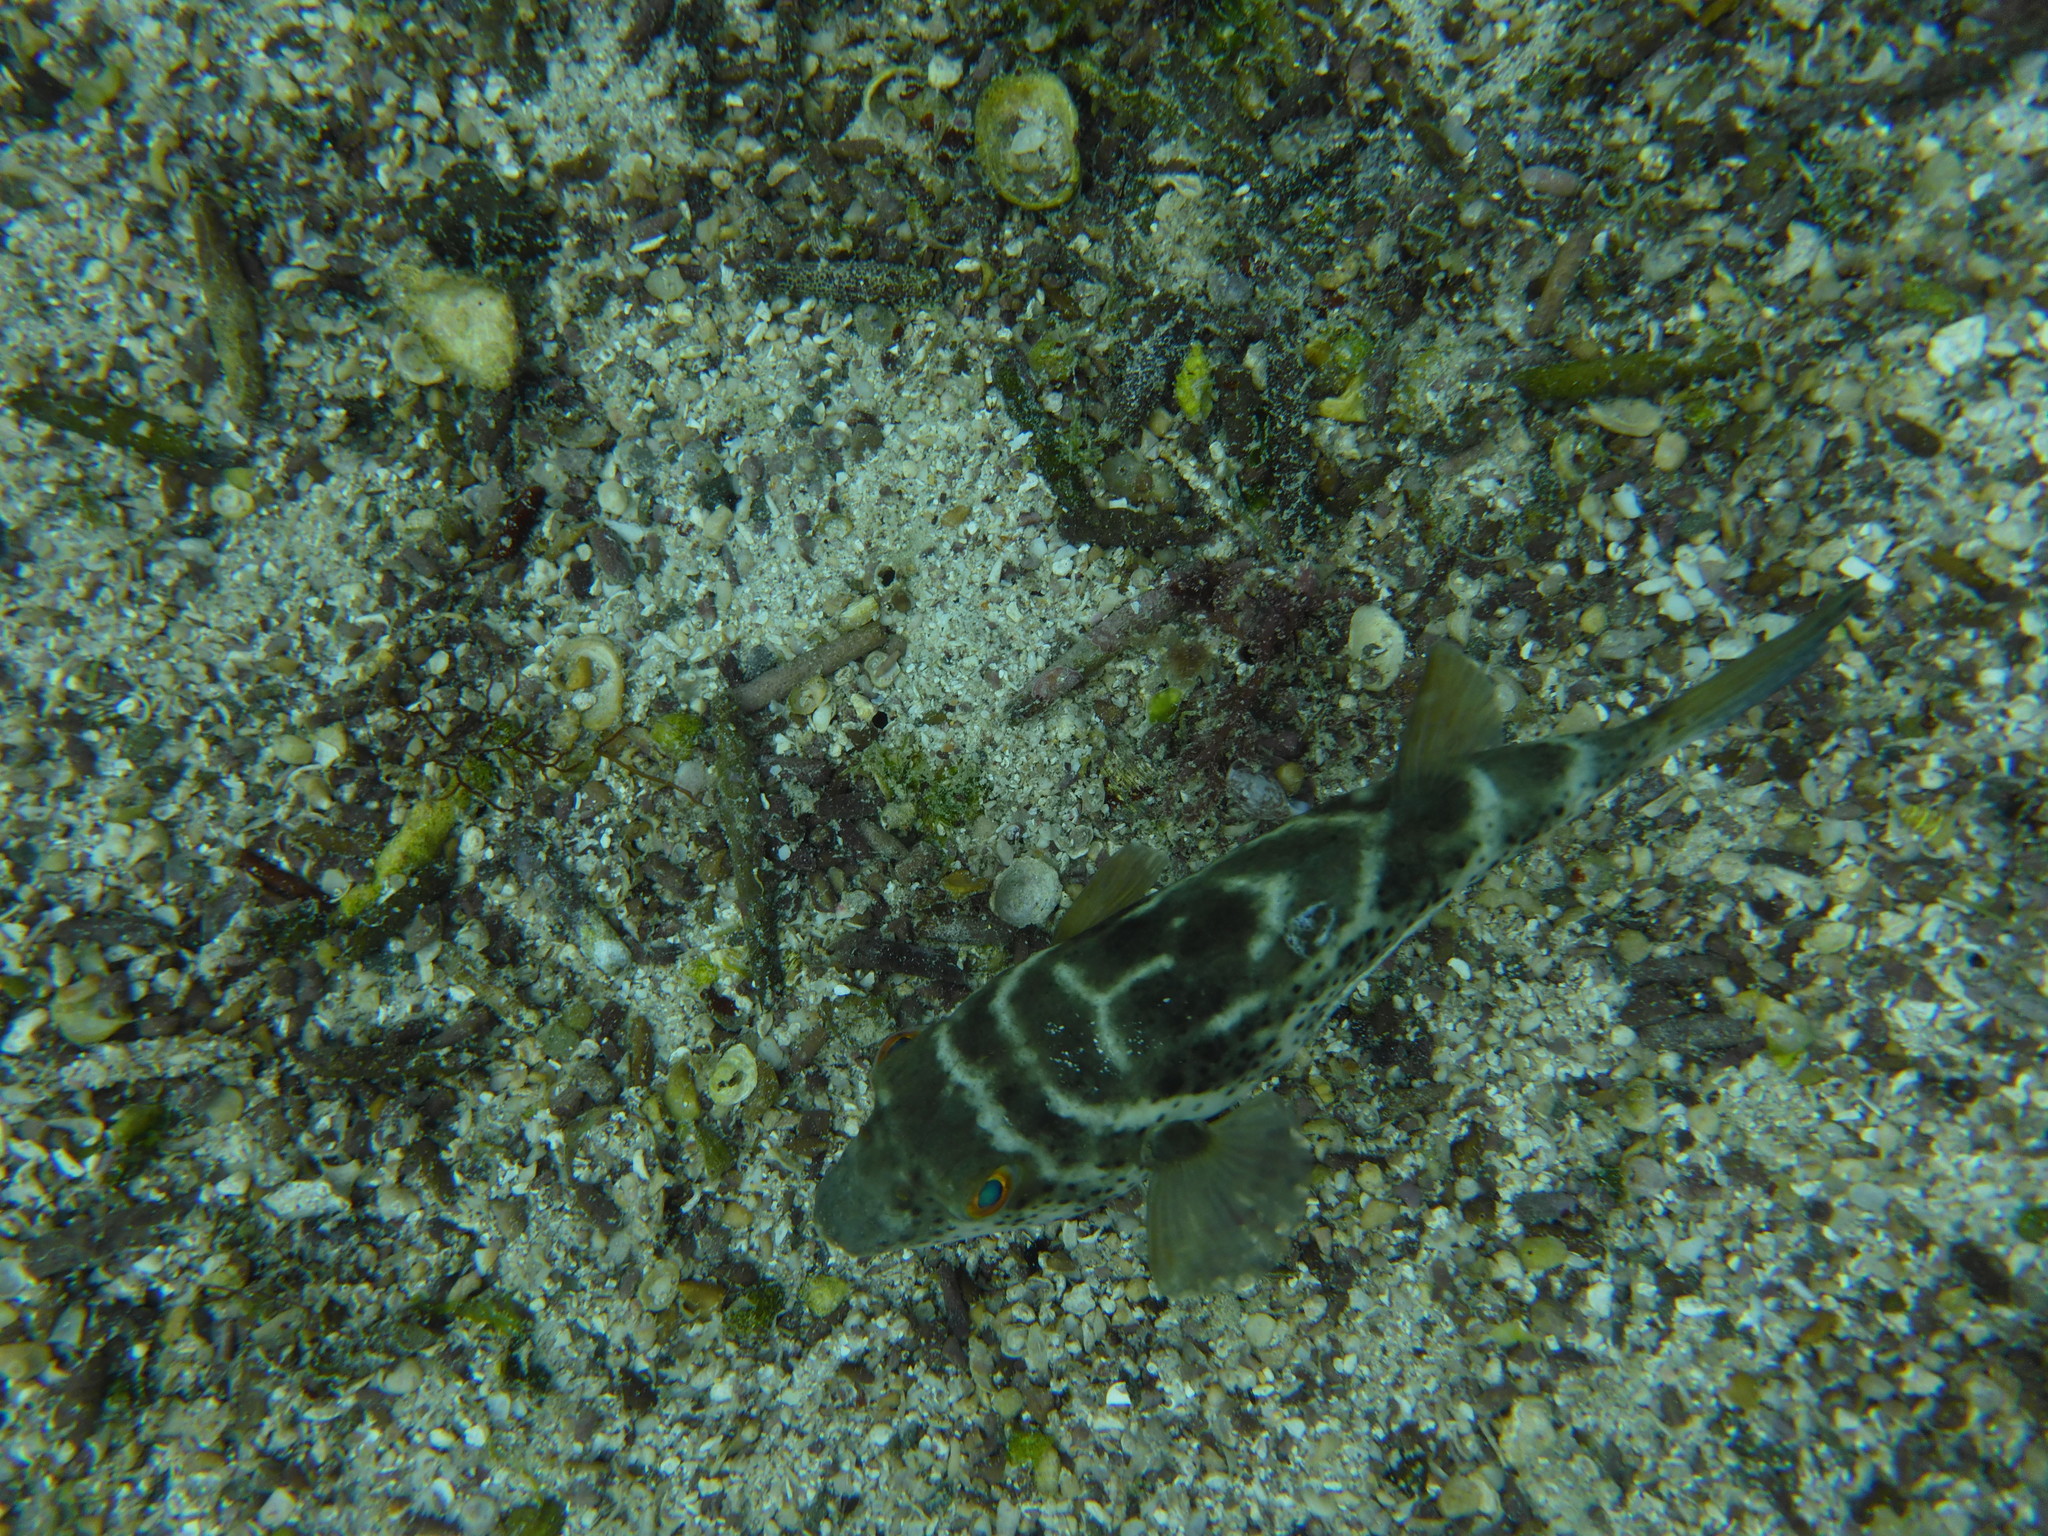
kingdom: Animalia
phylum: Chordata
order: Tetraodontiformes
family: Tetraodontidae
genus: Sphoeroides
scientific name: Sphoeroides annulatus
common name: Bullseye puffer
